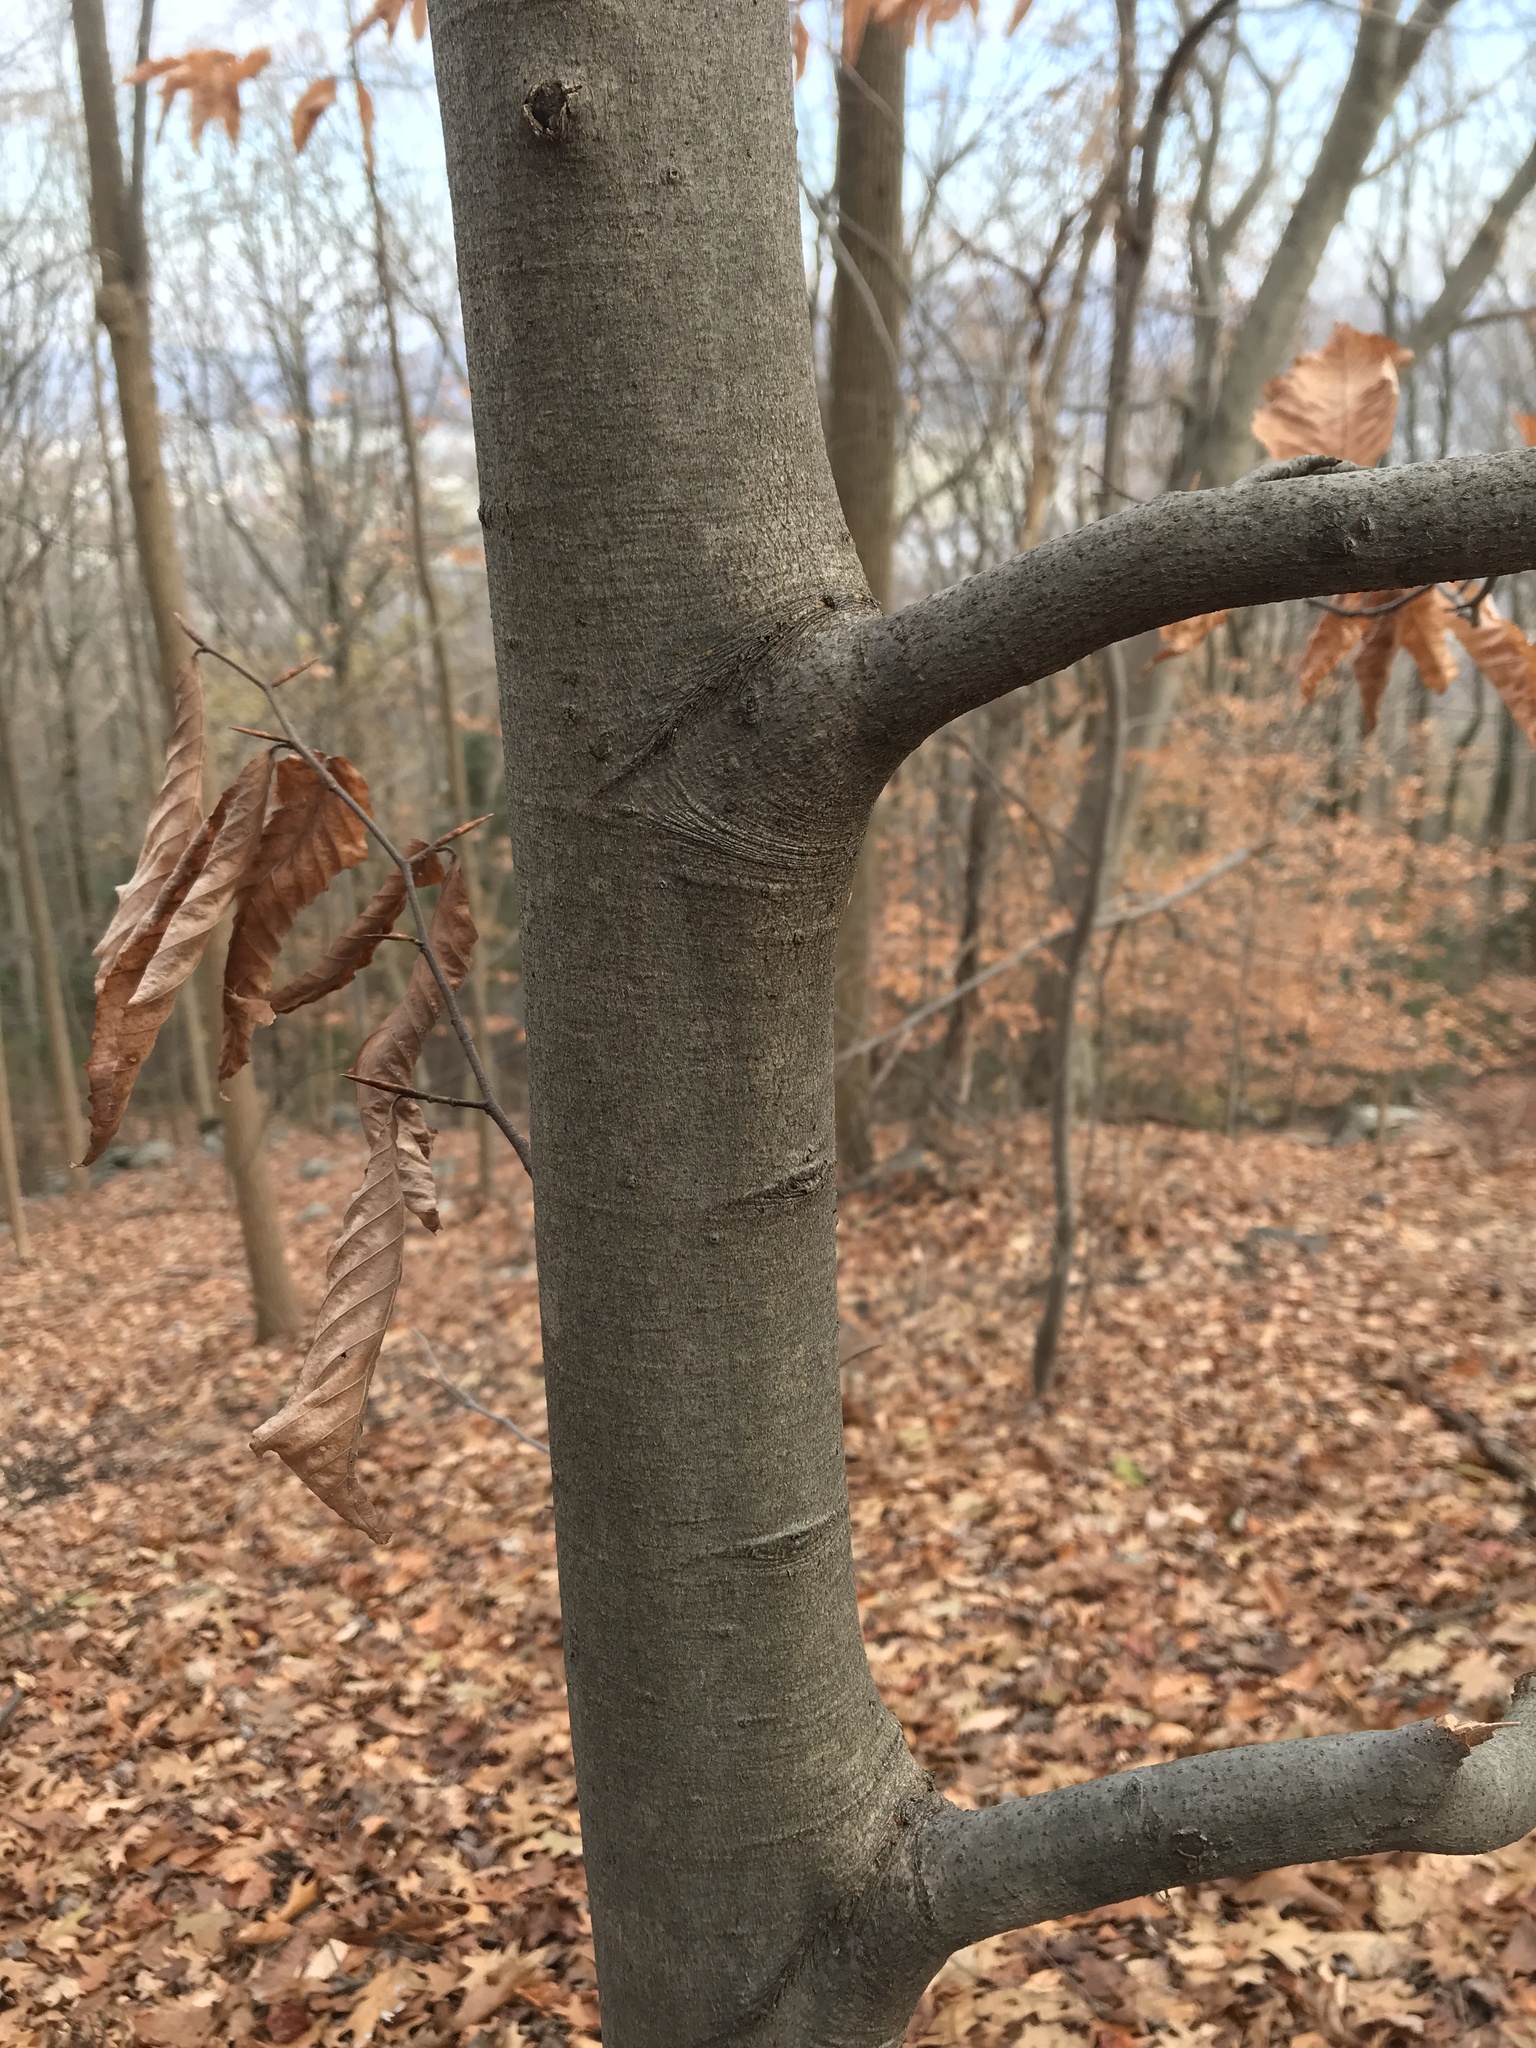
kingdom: Plantae
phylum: Tracheophyta
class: Magnoliopsida
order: Fagales
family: Fagaceae
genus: Fagus
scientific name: Fagus grandifolia
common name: American beech
